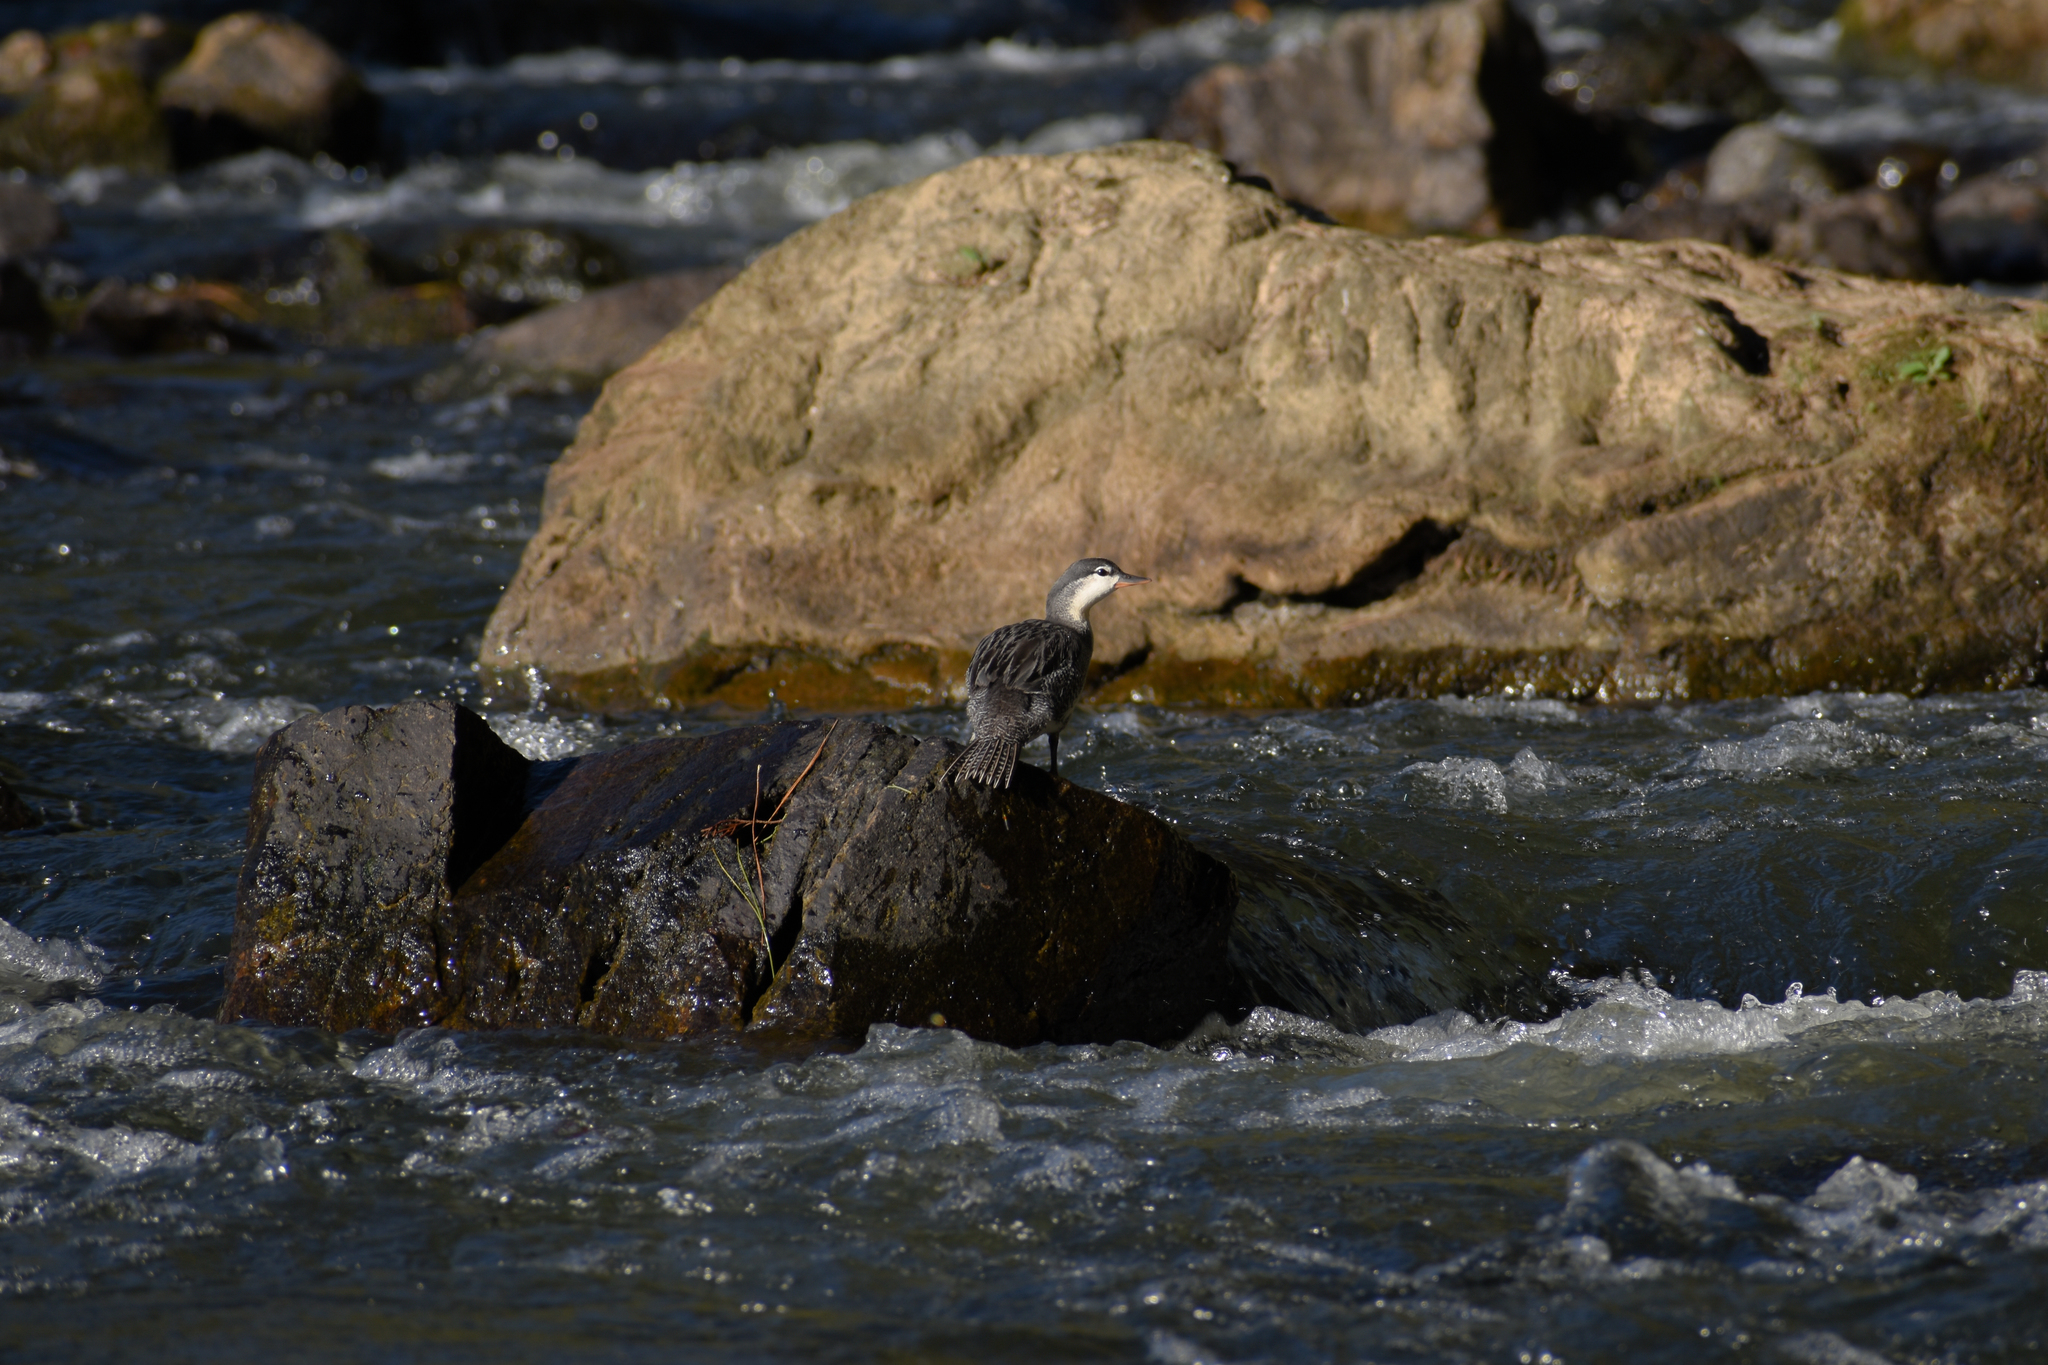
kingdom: Animalia
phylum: Chordata
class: Aves
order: Anseriformes
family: Anatidae
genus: Merganetta
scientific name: Merganetta armata
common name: Torrent duck
